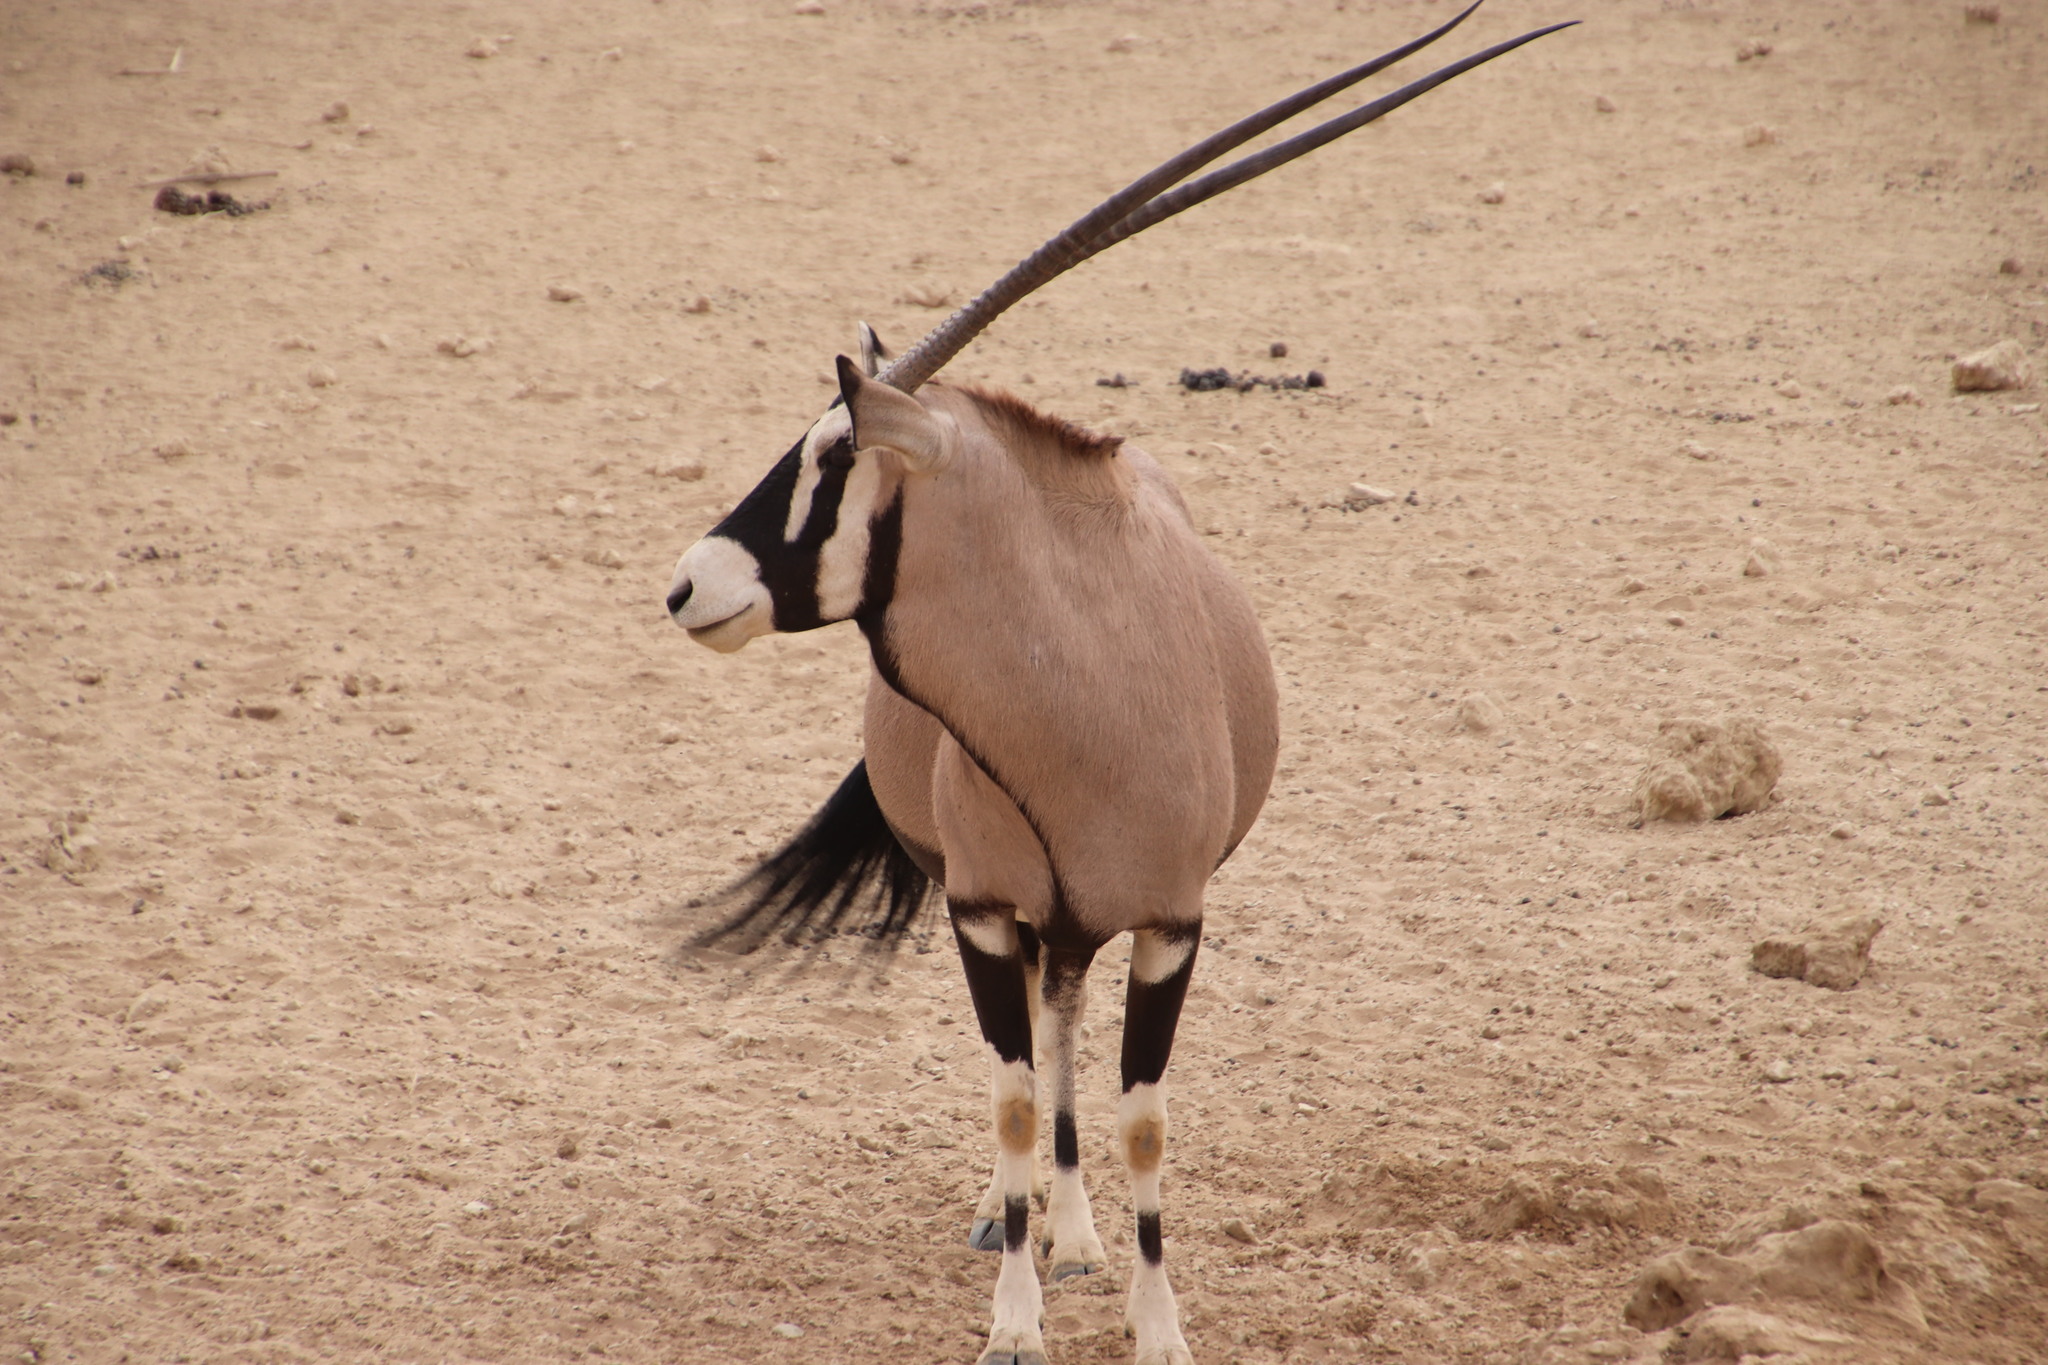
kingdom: Animalia
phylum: Chordata
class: Mammalia
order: Artiodactyla
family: Bovidae
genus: Oryx
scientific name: Oryx gazella
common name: Gemsbok
